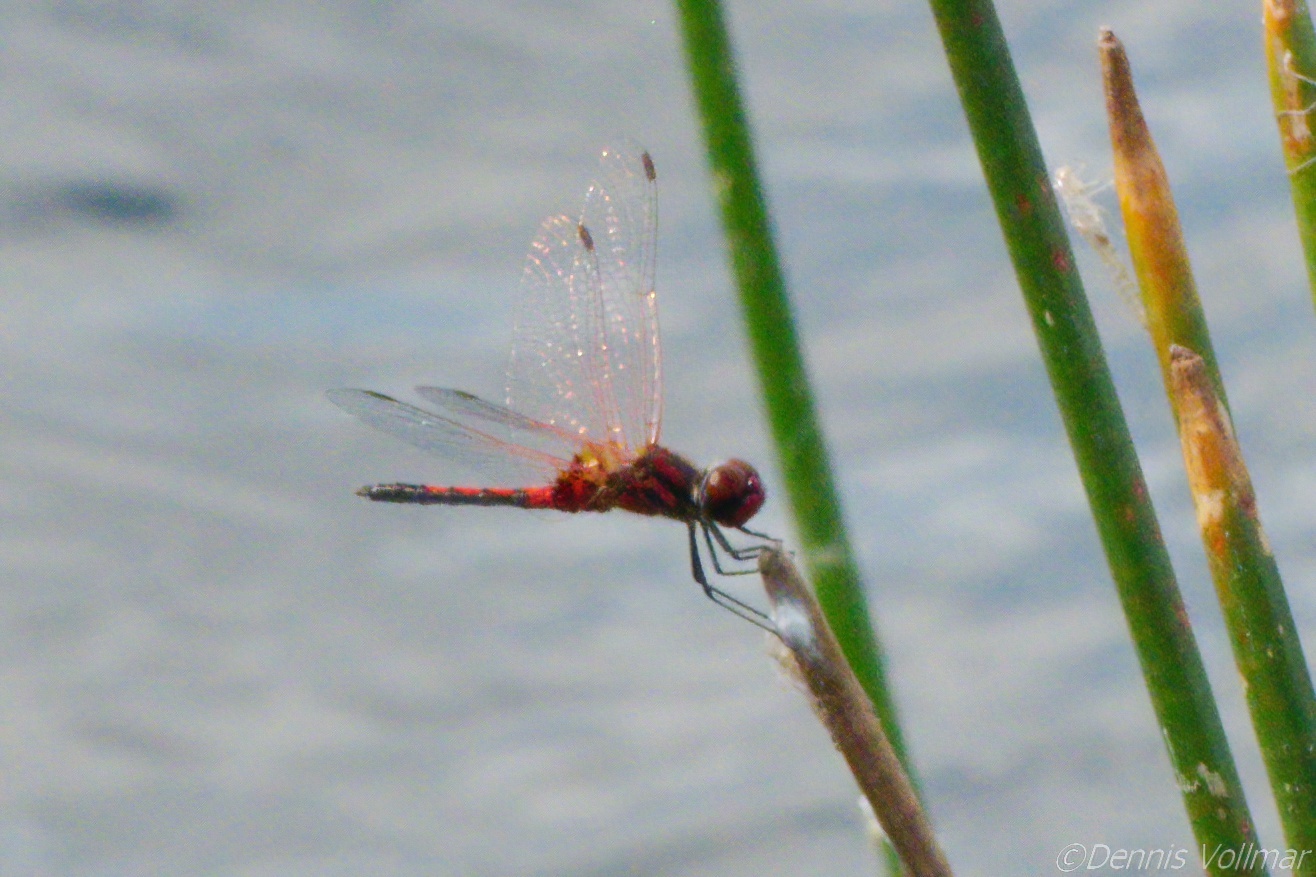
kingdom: Animalia
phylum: Arthropoda
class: Insecta
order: Odonata
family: Libellulidae
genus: Celithemis
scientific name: Celithemis bertha
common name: Red-veined pennant
